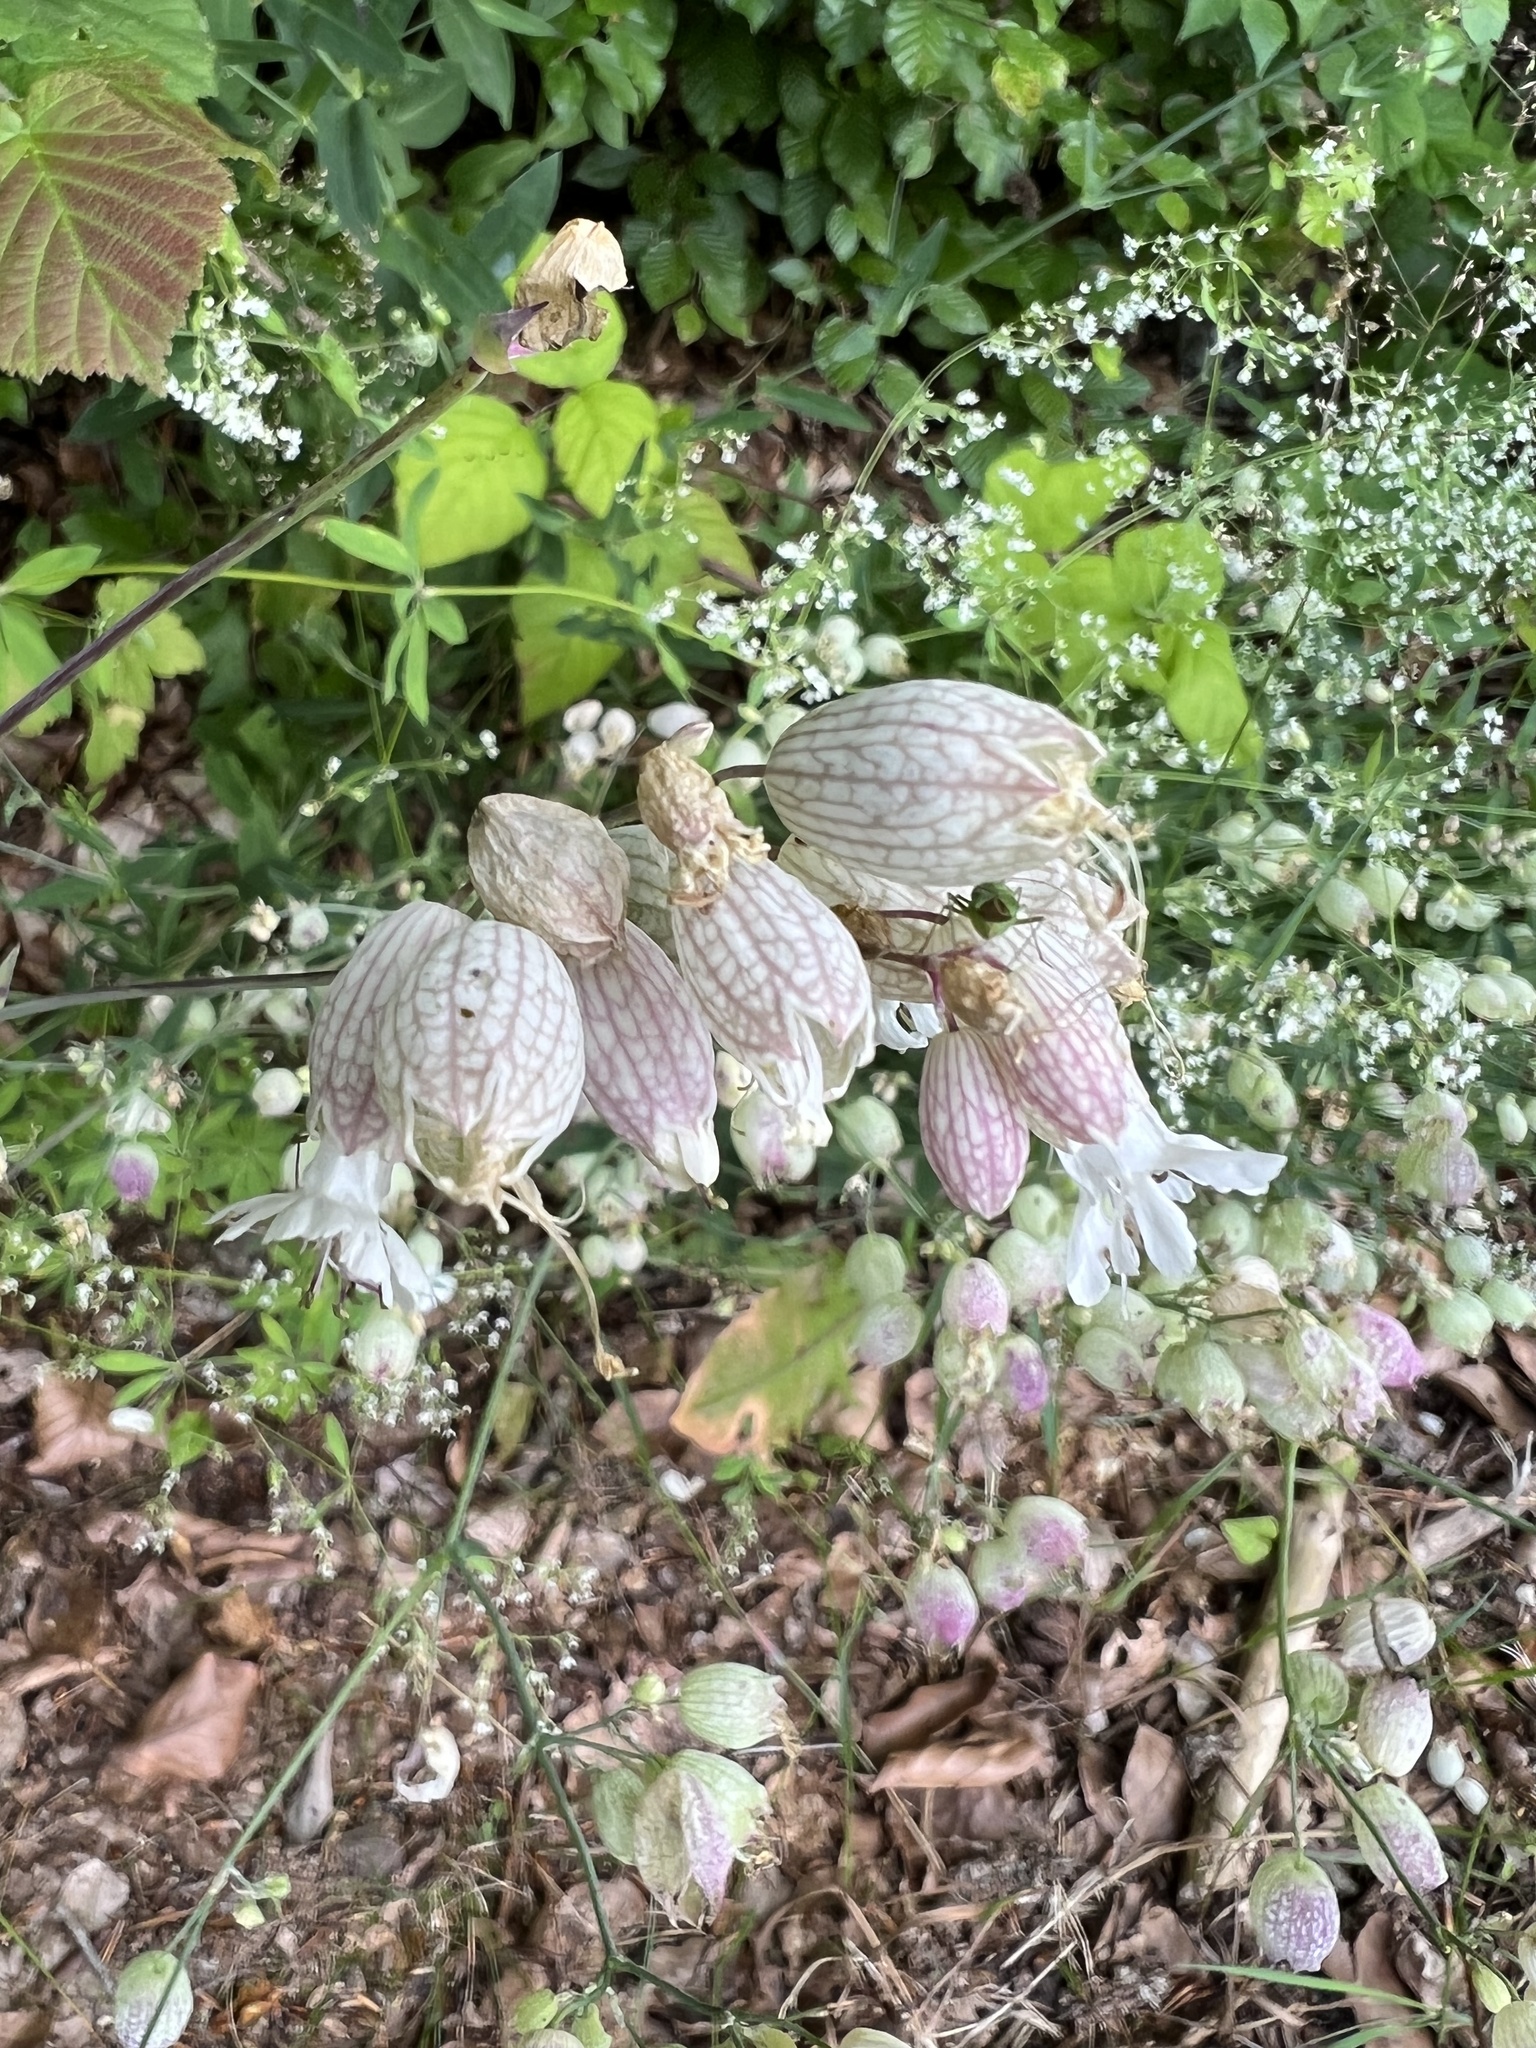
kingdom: Plantae
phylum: Tracheophyta
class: Magnoliopsida
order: Caryophyllales
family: Caryophyllaceae
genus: Silene
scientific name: Silene vulgaris
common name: Bladder campion
